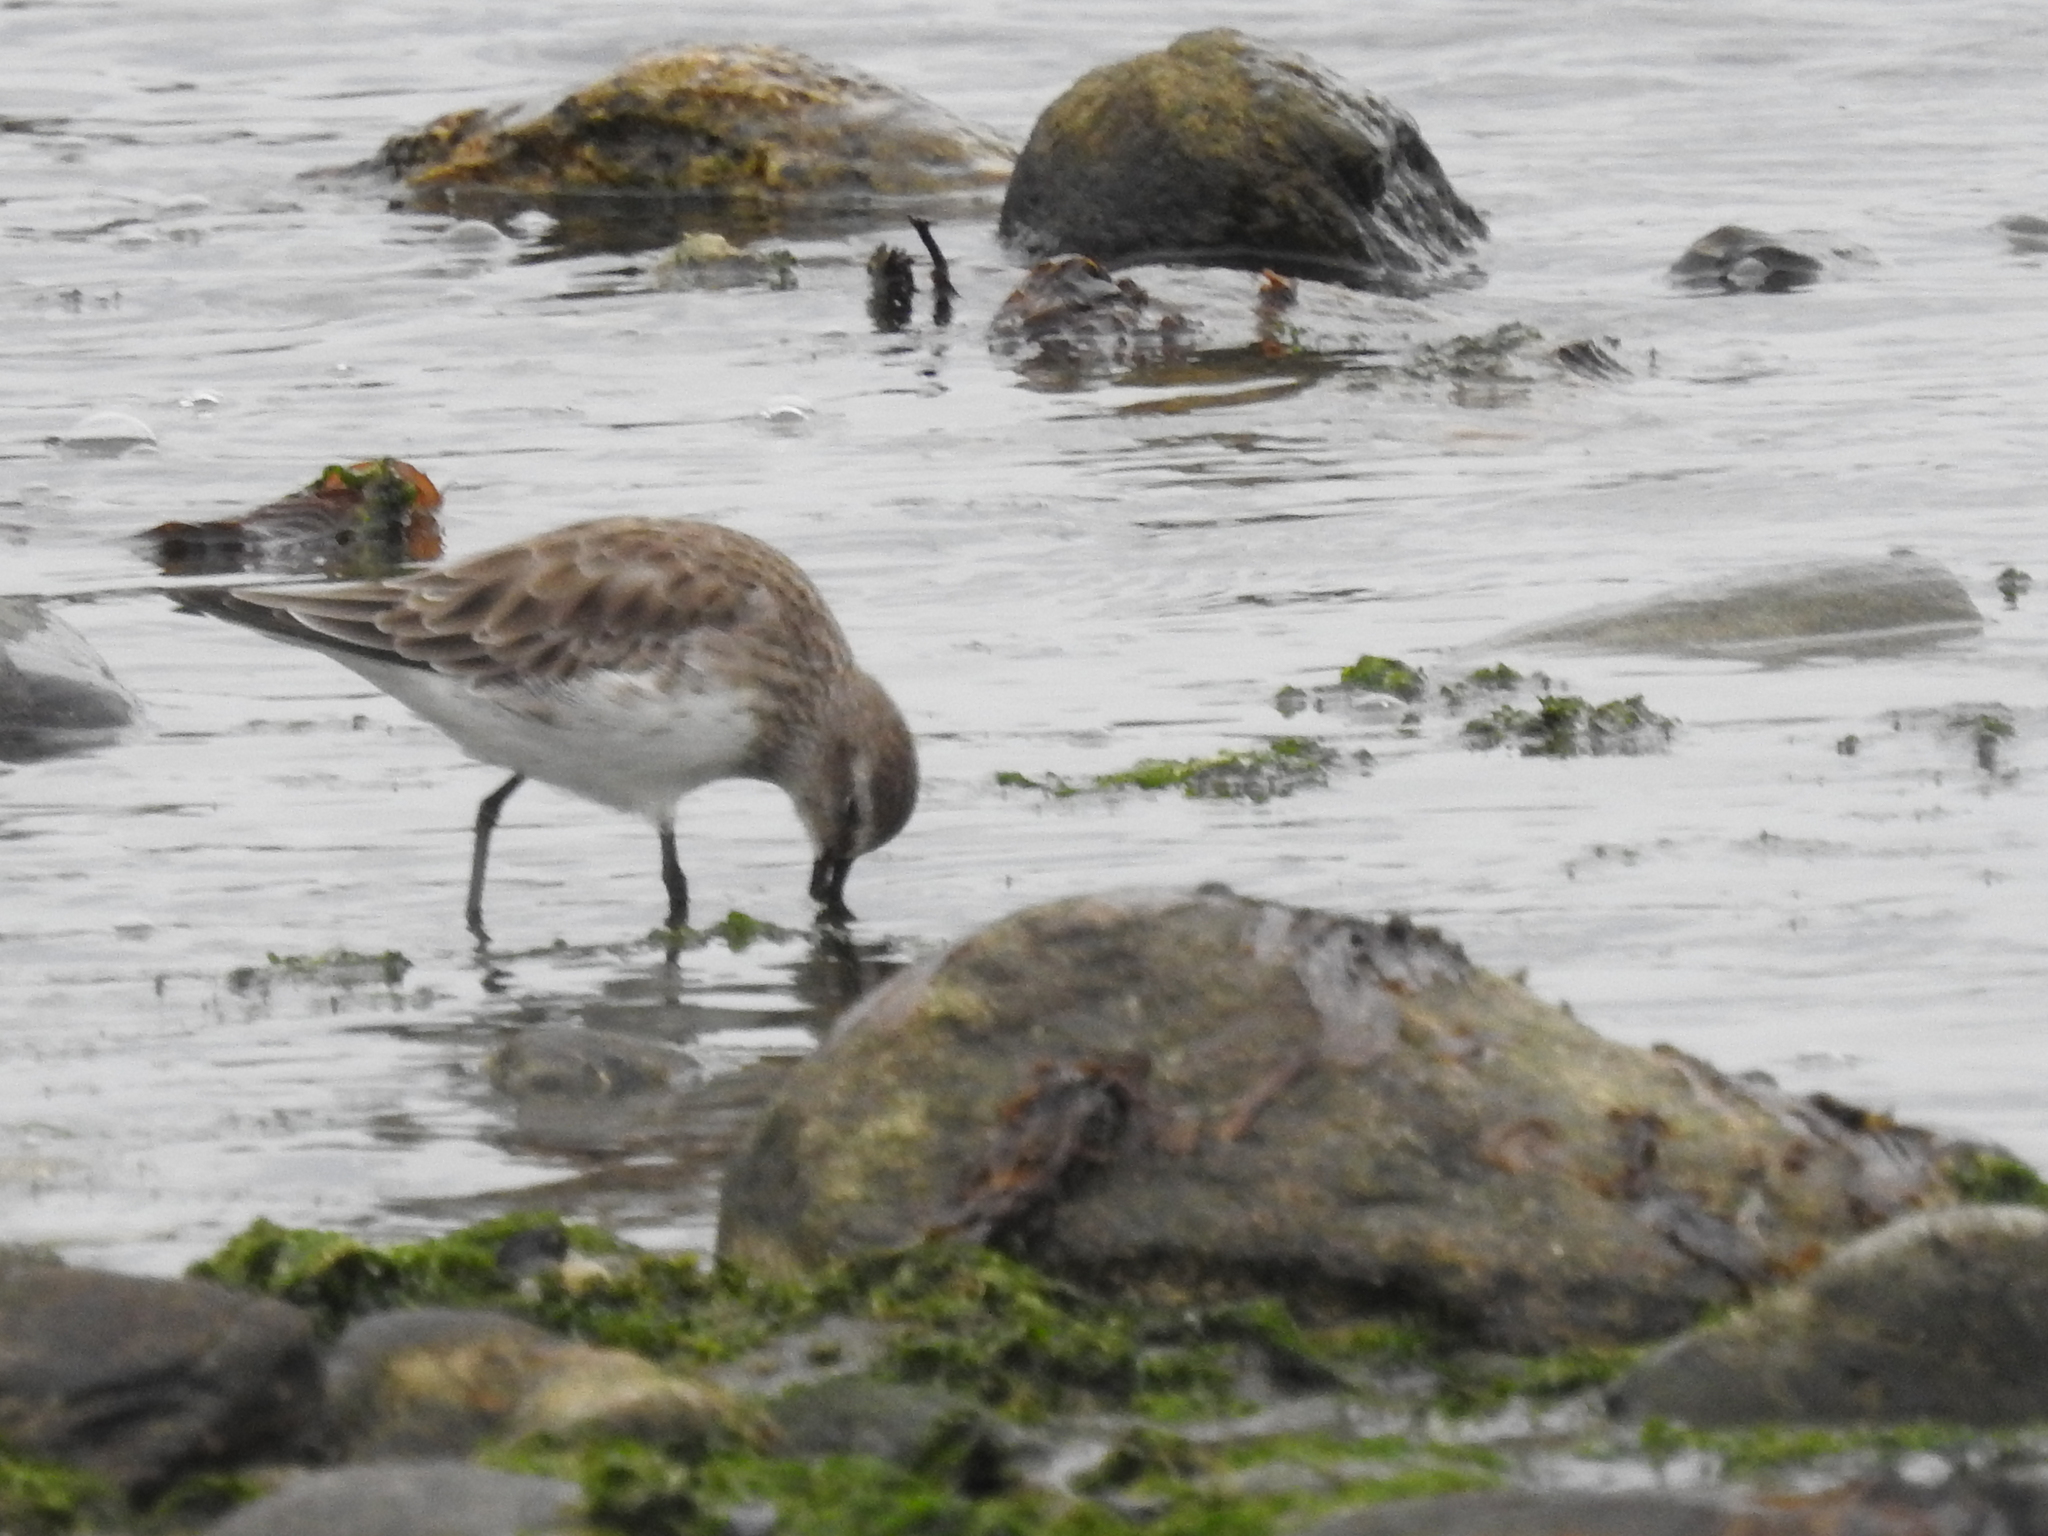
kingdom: Animalia
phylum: Chordata
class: Aves
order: Charadriiformes
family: Scolopacidae
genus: Calidris
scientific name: Calidris fuscicollis
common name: White-rumped sandpiper
